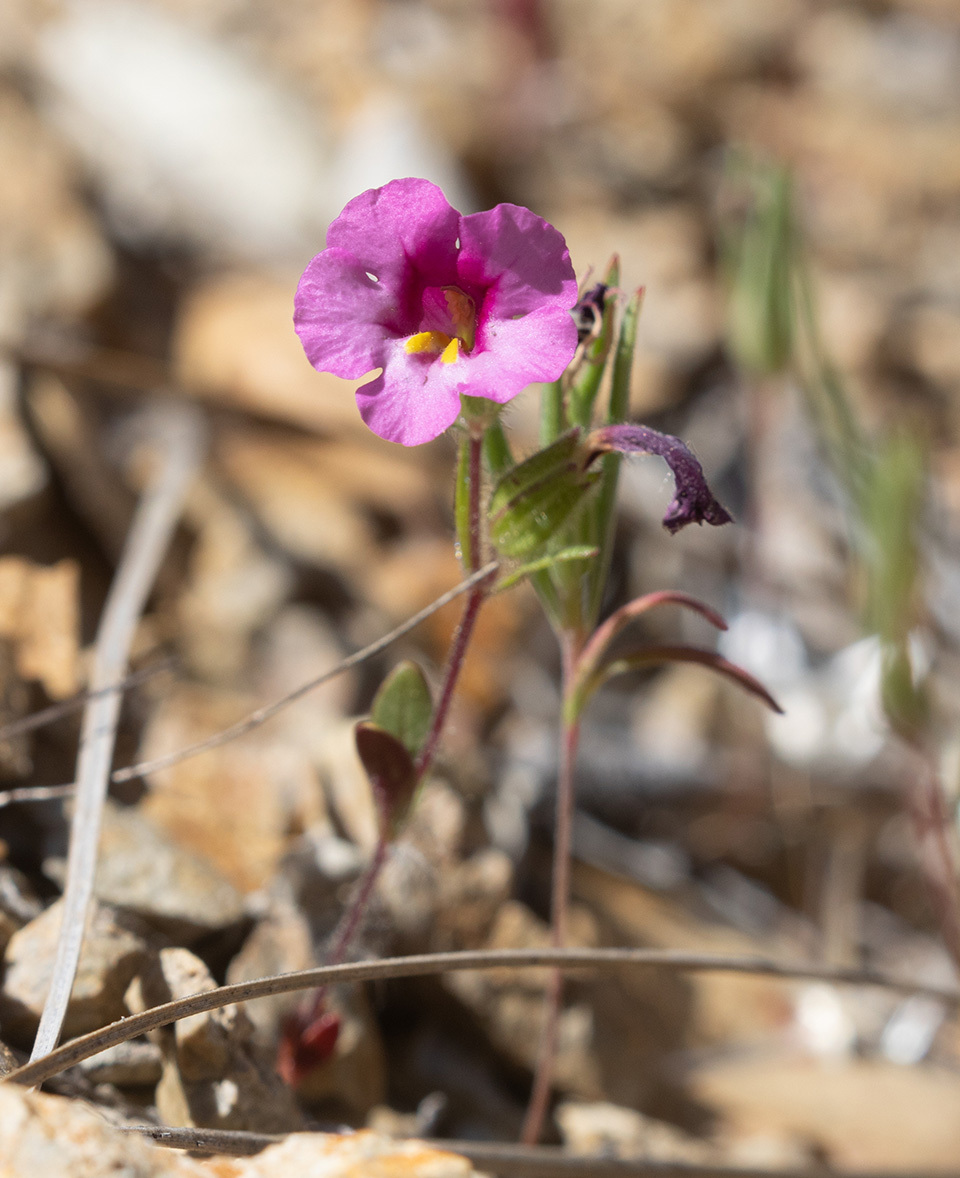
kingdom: Plantae
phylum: Tracheophyta
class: Magnoliopsida
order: Lamiales
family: Phrymaceae
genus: Diplacus
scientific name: Diplacus fremontii
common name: Fremont's monkey-flower
